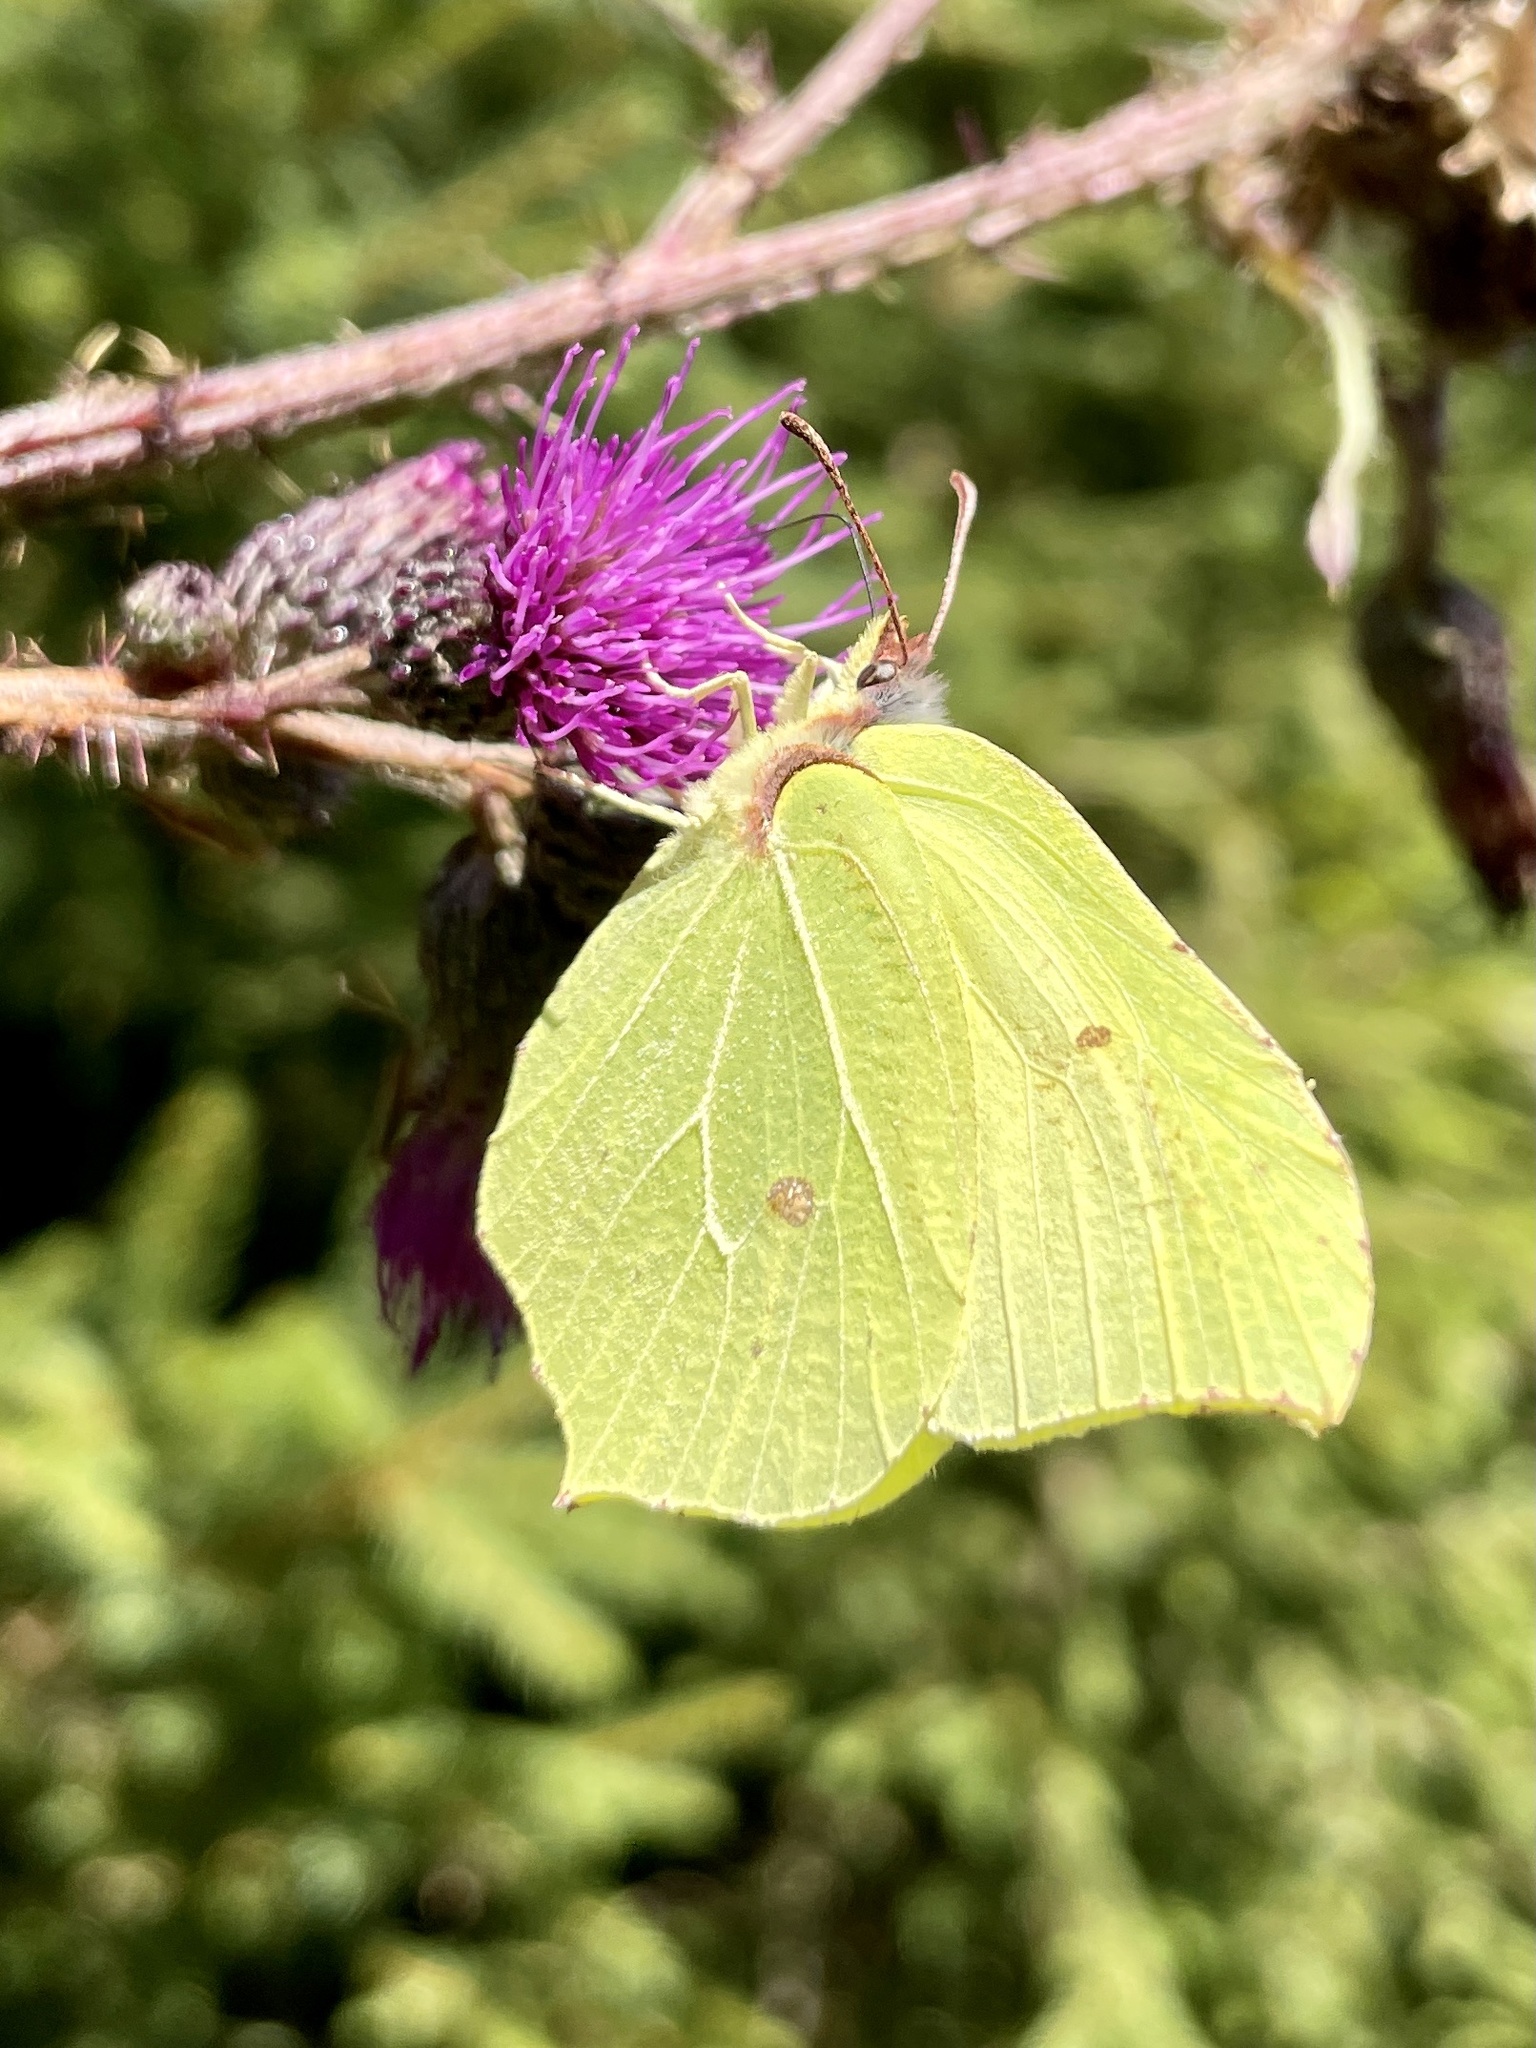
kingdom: Animalia
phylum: Arthropoda
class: Insecta
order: Lepidoptera
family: Pieridae
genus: Gonepteryx
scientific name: Gonepteryx rhamni
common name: Brimstone
